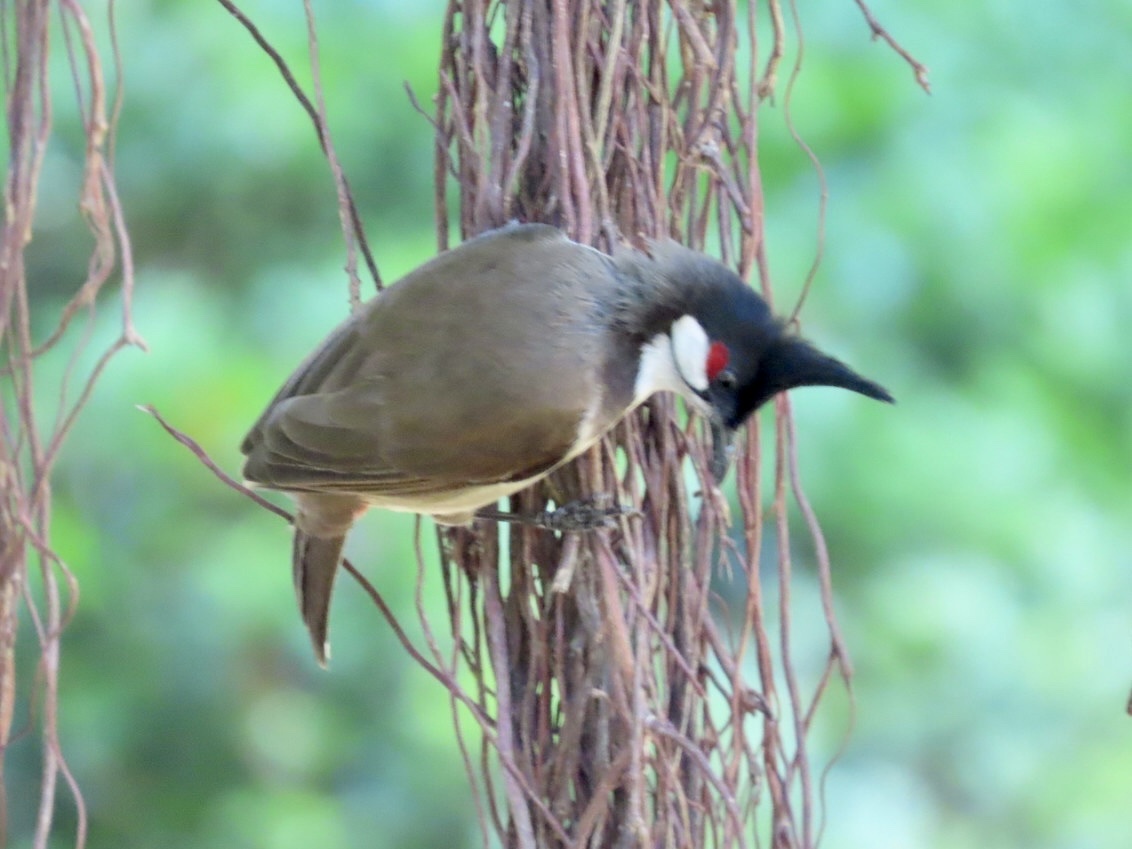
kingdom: Animalia
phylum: Chordata
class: Aves
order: Passeriformes
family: Pycnonotidae
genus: Pycnonotus
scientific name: Pycnonotus jocosus
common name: Red-whiskered bulbul
